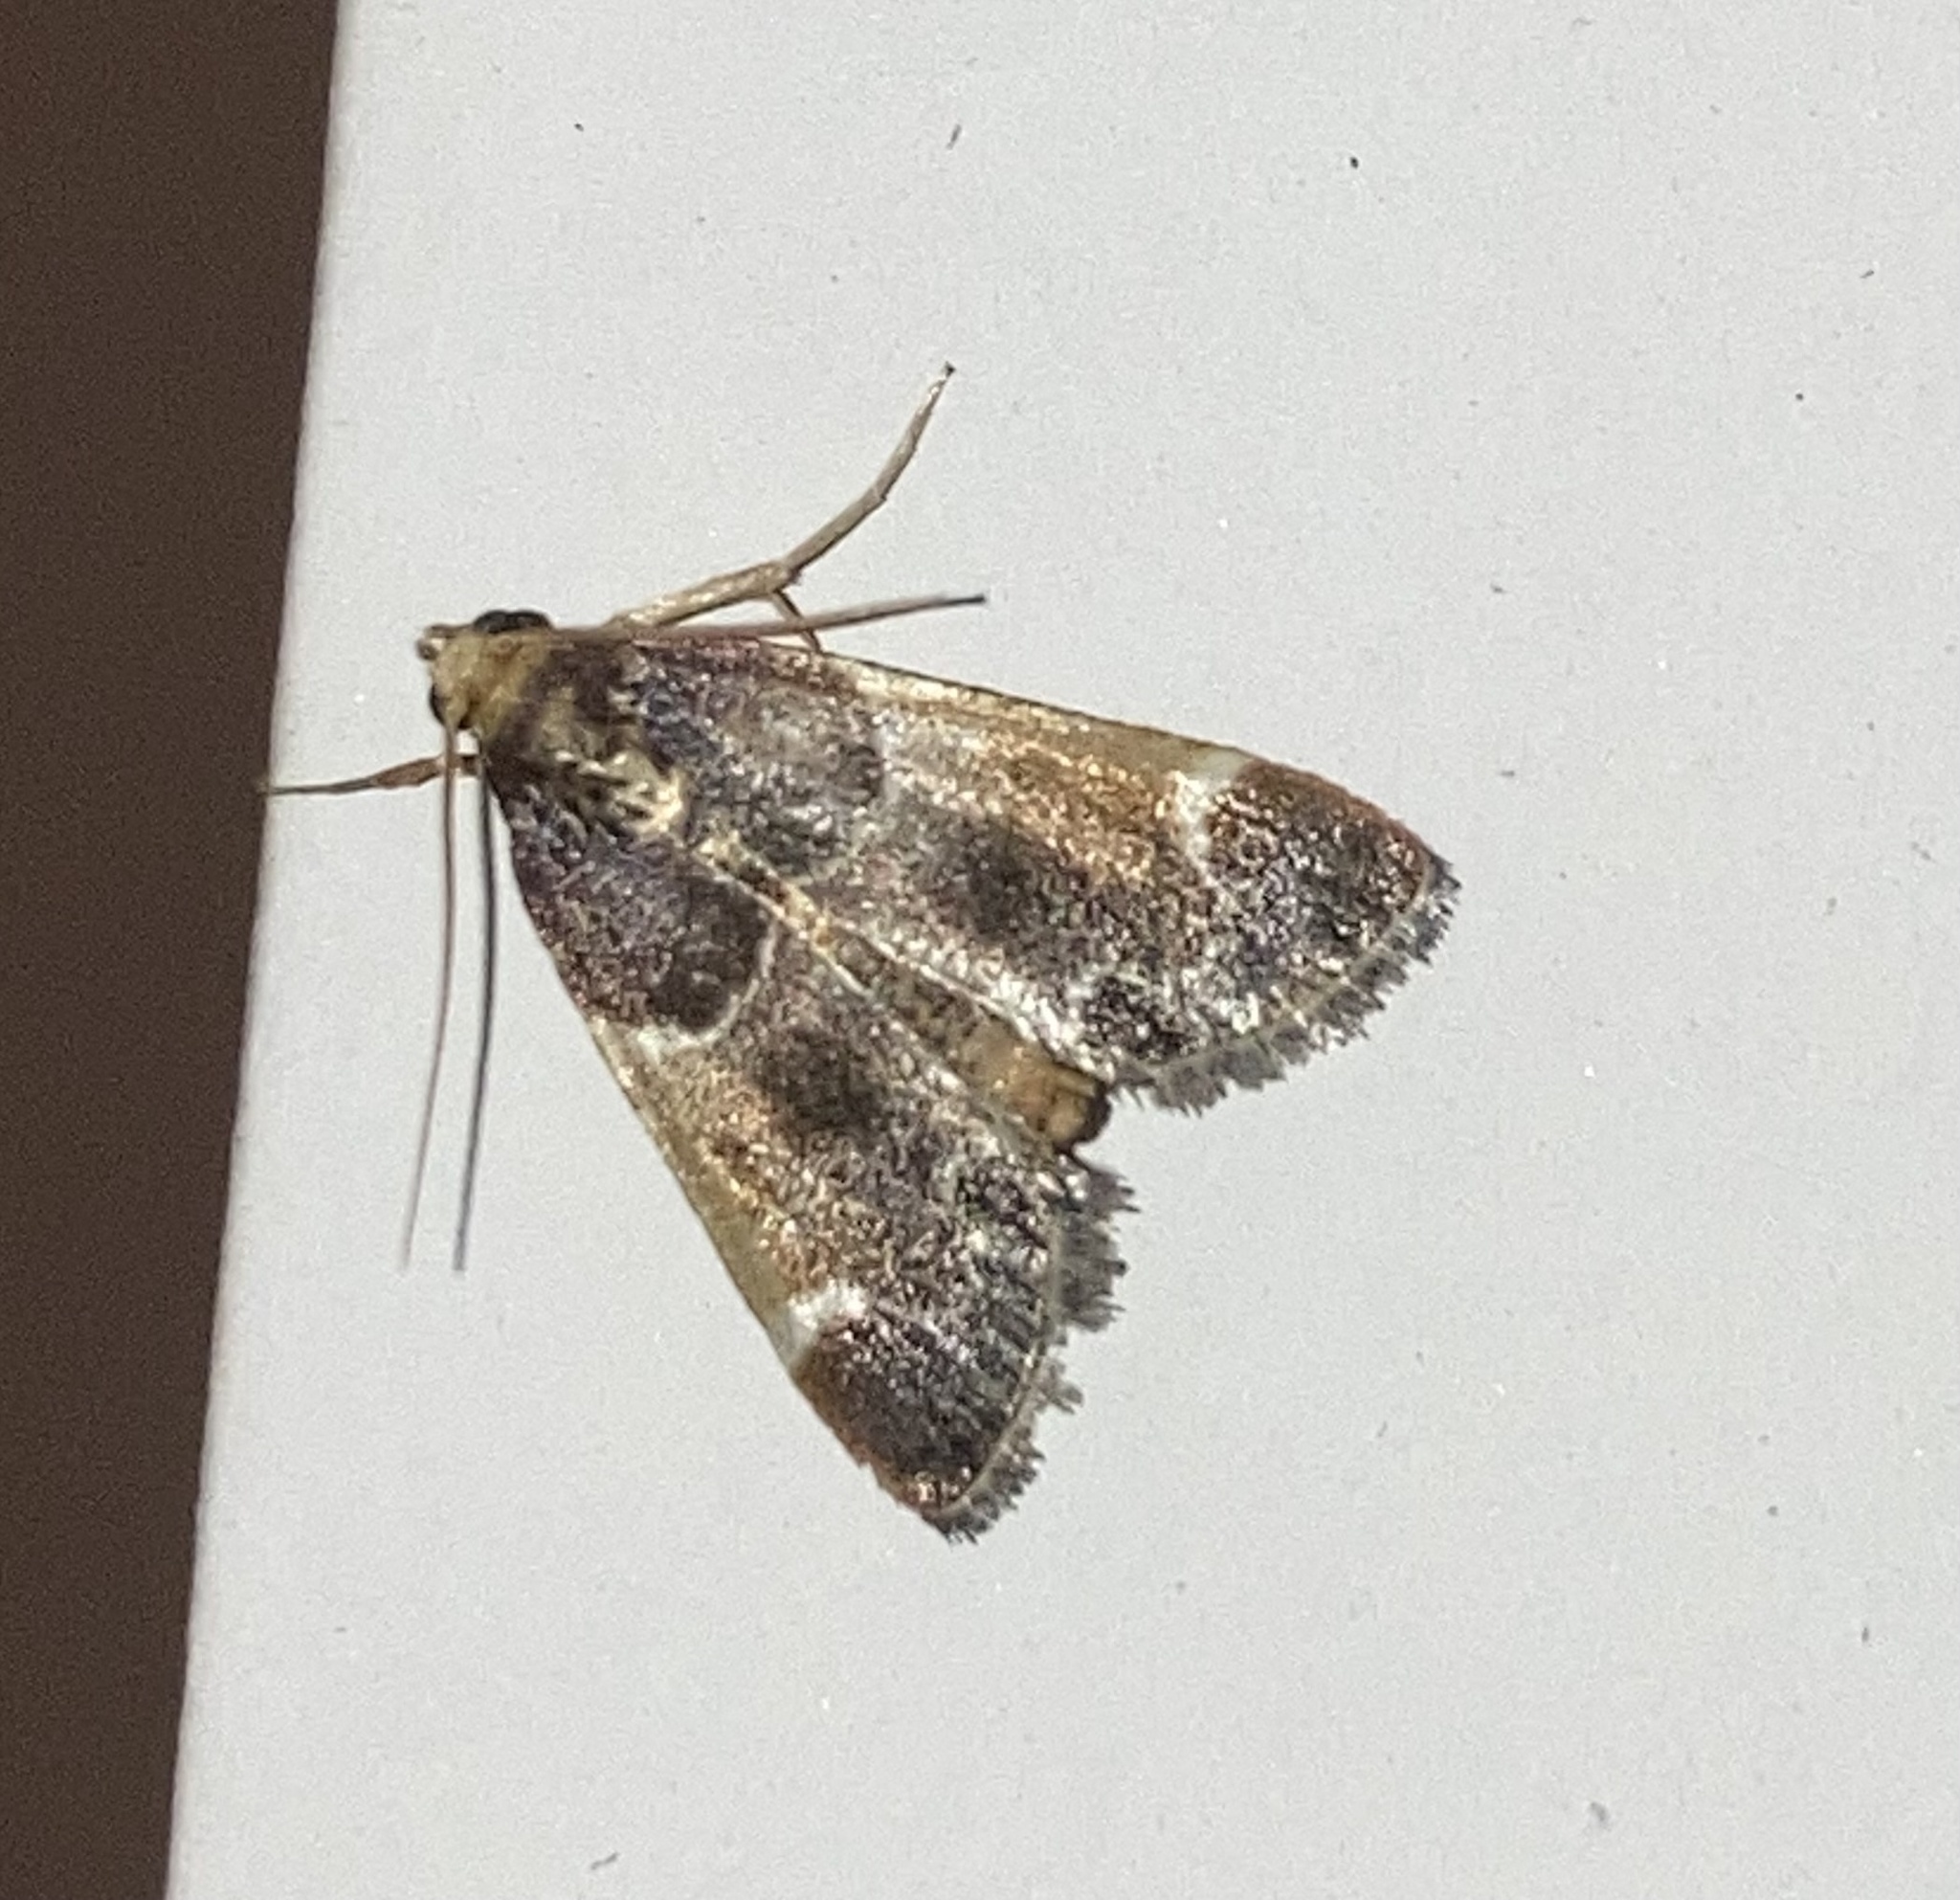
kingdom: Animalia
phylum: Arthropoda
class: Insecta
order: Lepidoptera
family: Pyralidae
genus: Pyralis
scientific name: Pyralis farinalis
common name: Meal moth
